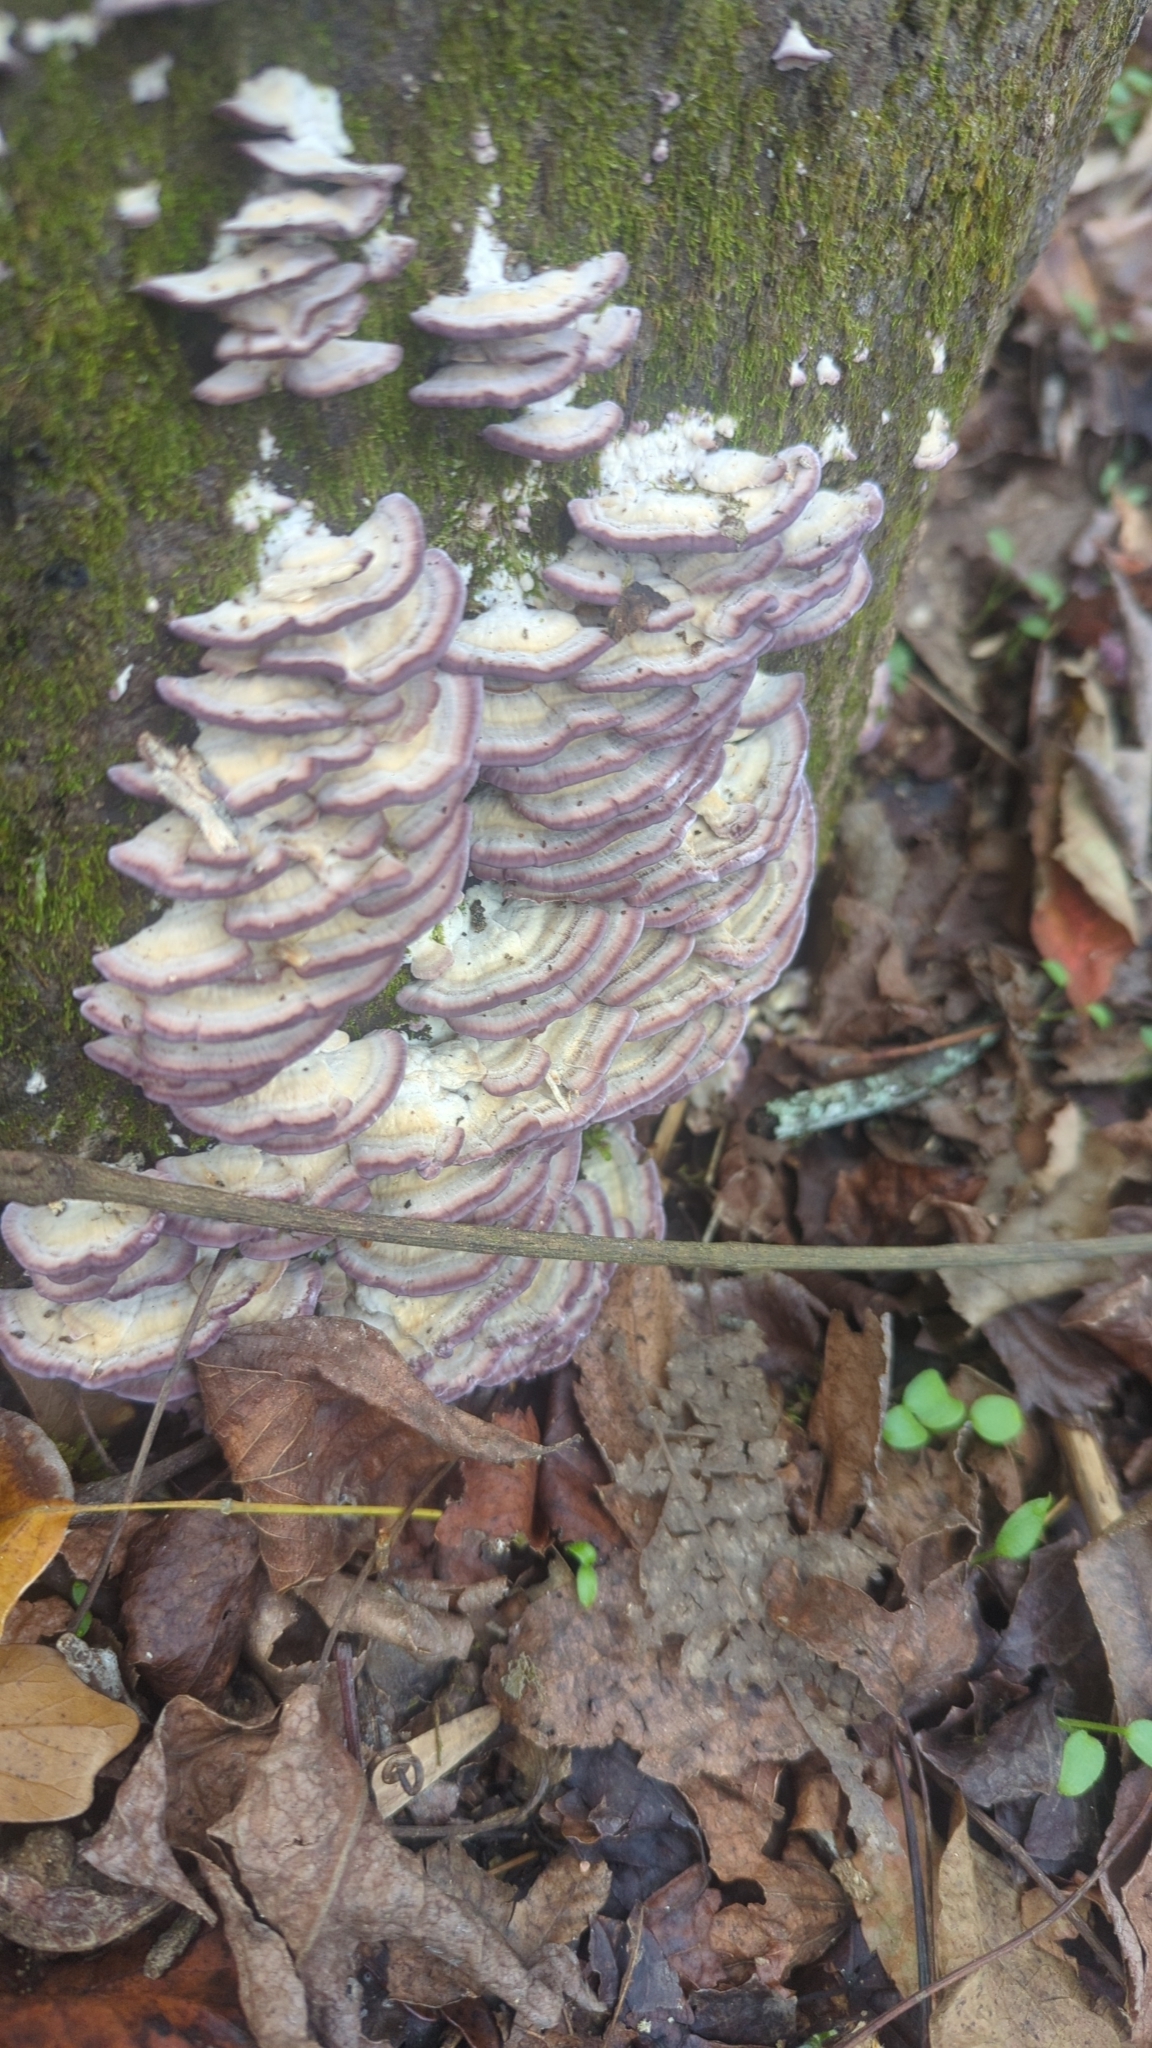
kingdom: Fungi
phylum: Basidiomycota
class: Agaricomycetes
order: Hymenochaetales
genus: Trichaptum
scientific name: Trichaptum biforme
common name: Violet-toothed polypore
